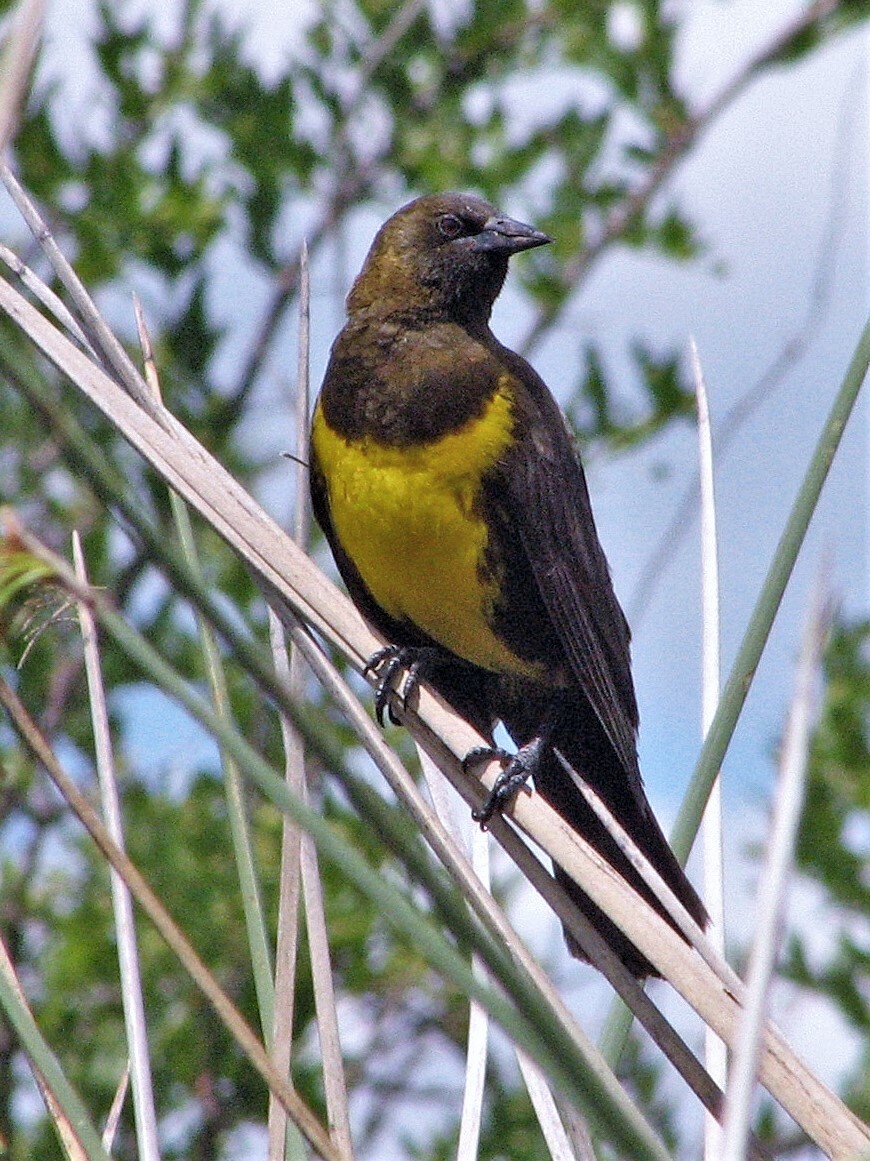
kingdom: Animalia
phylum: Chordata
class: Aves
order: Passeriformes
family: Icteridae
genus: Pseudoleistes
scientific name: Pseudoleistes virescens
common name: Brown-and-yellow marshbird
